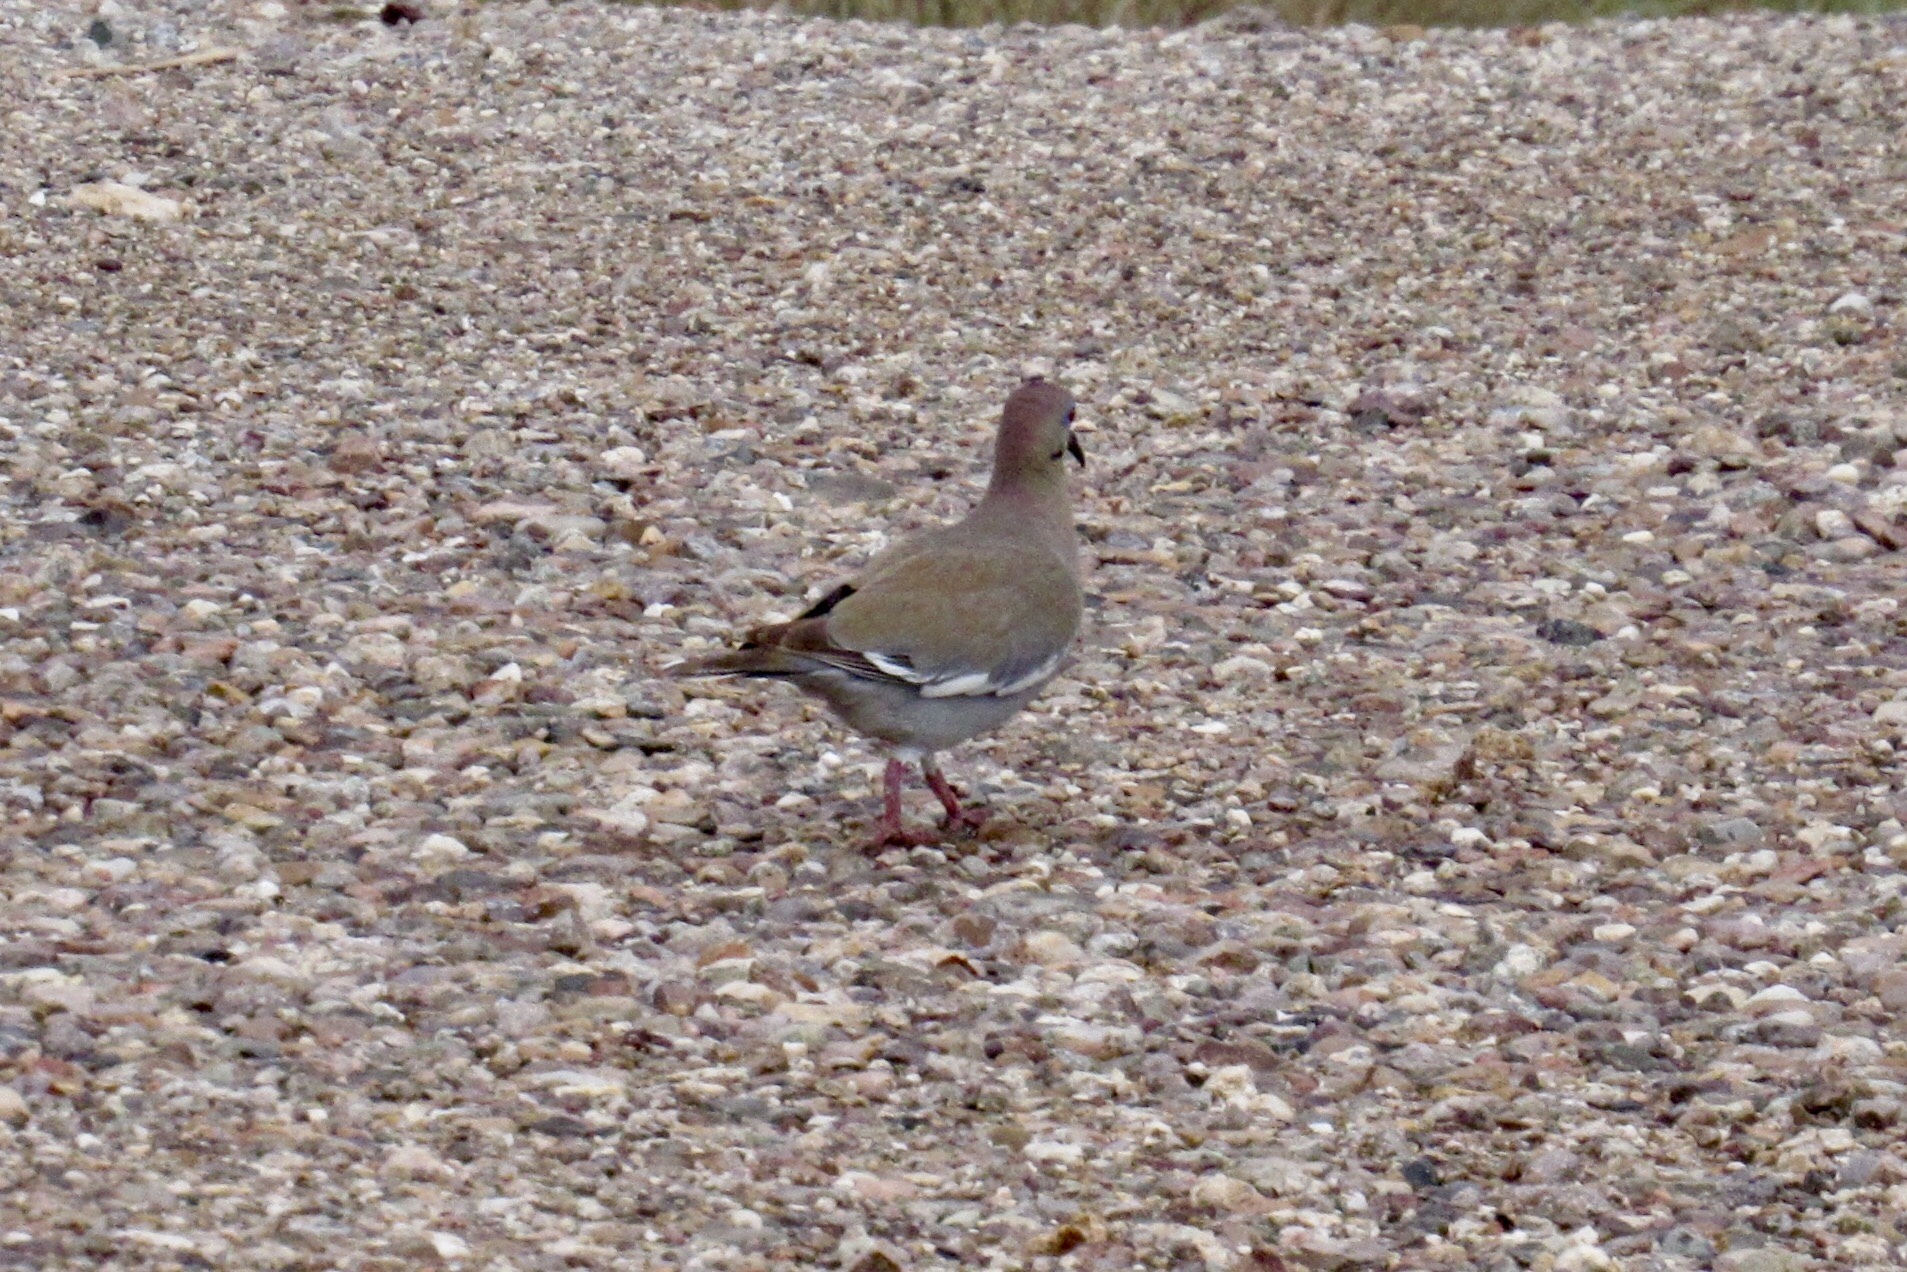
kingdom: Animalia
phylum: Chordata
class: Aves
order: Columbiformes
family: Columbidae
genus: Zenaida
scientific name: Zenaida asiatica
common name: White-winged dove
